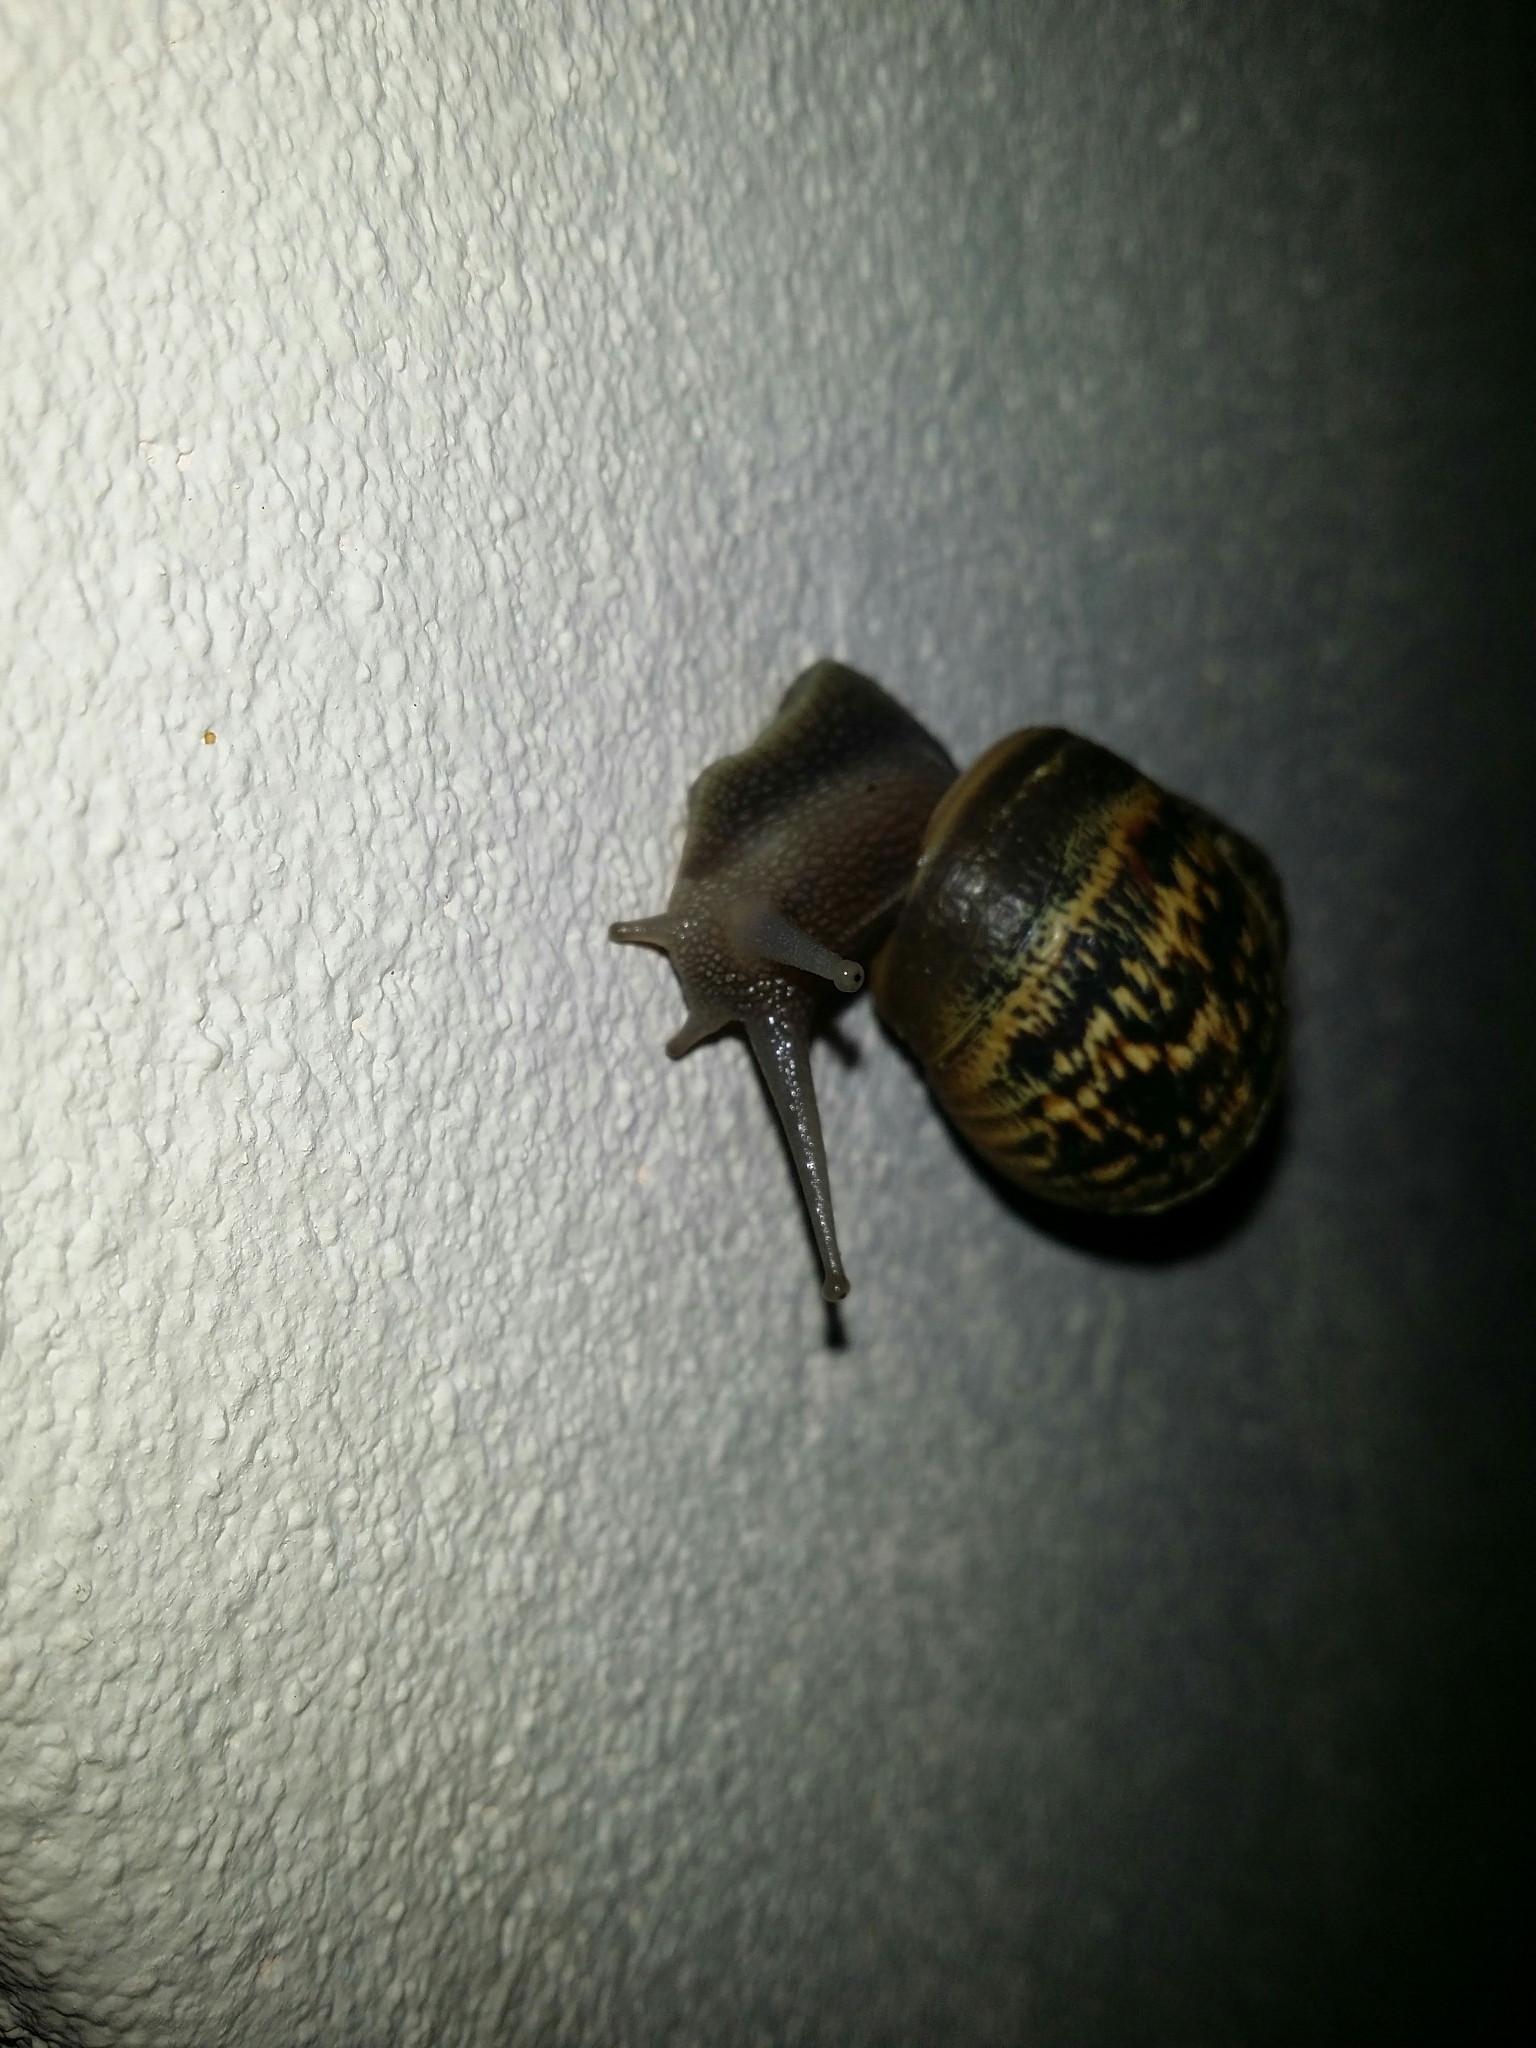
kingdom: Animalia
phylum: Mollusca
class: Gastropoda
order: Stylommatophora
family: Helicidae
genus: Cornu
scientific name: Cornu aspersum
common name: Brown garden snail
